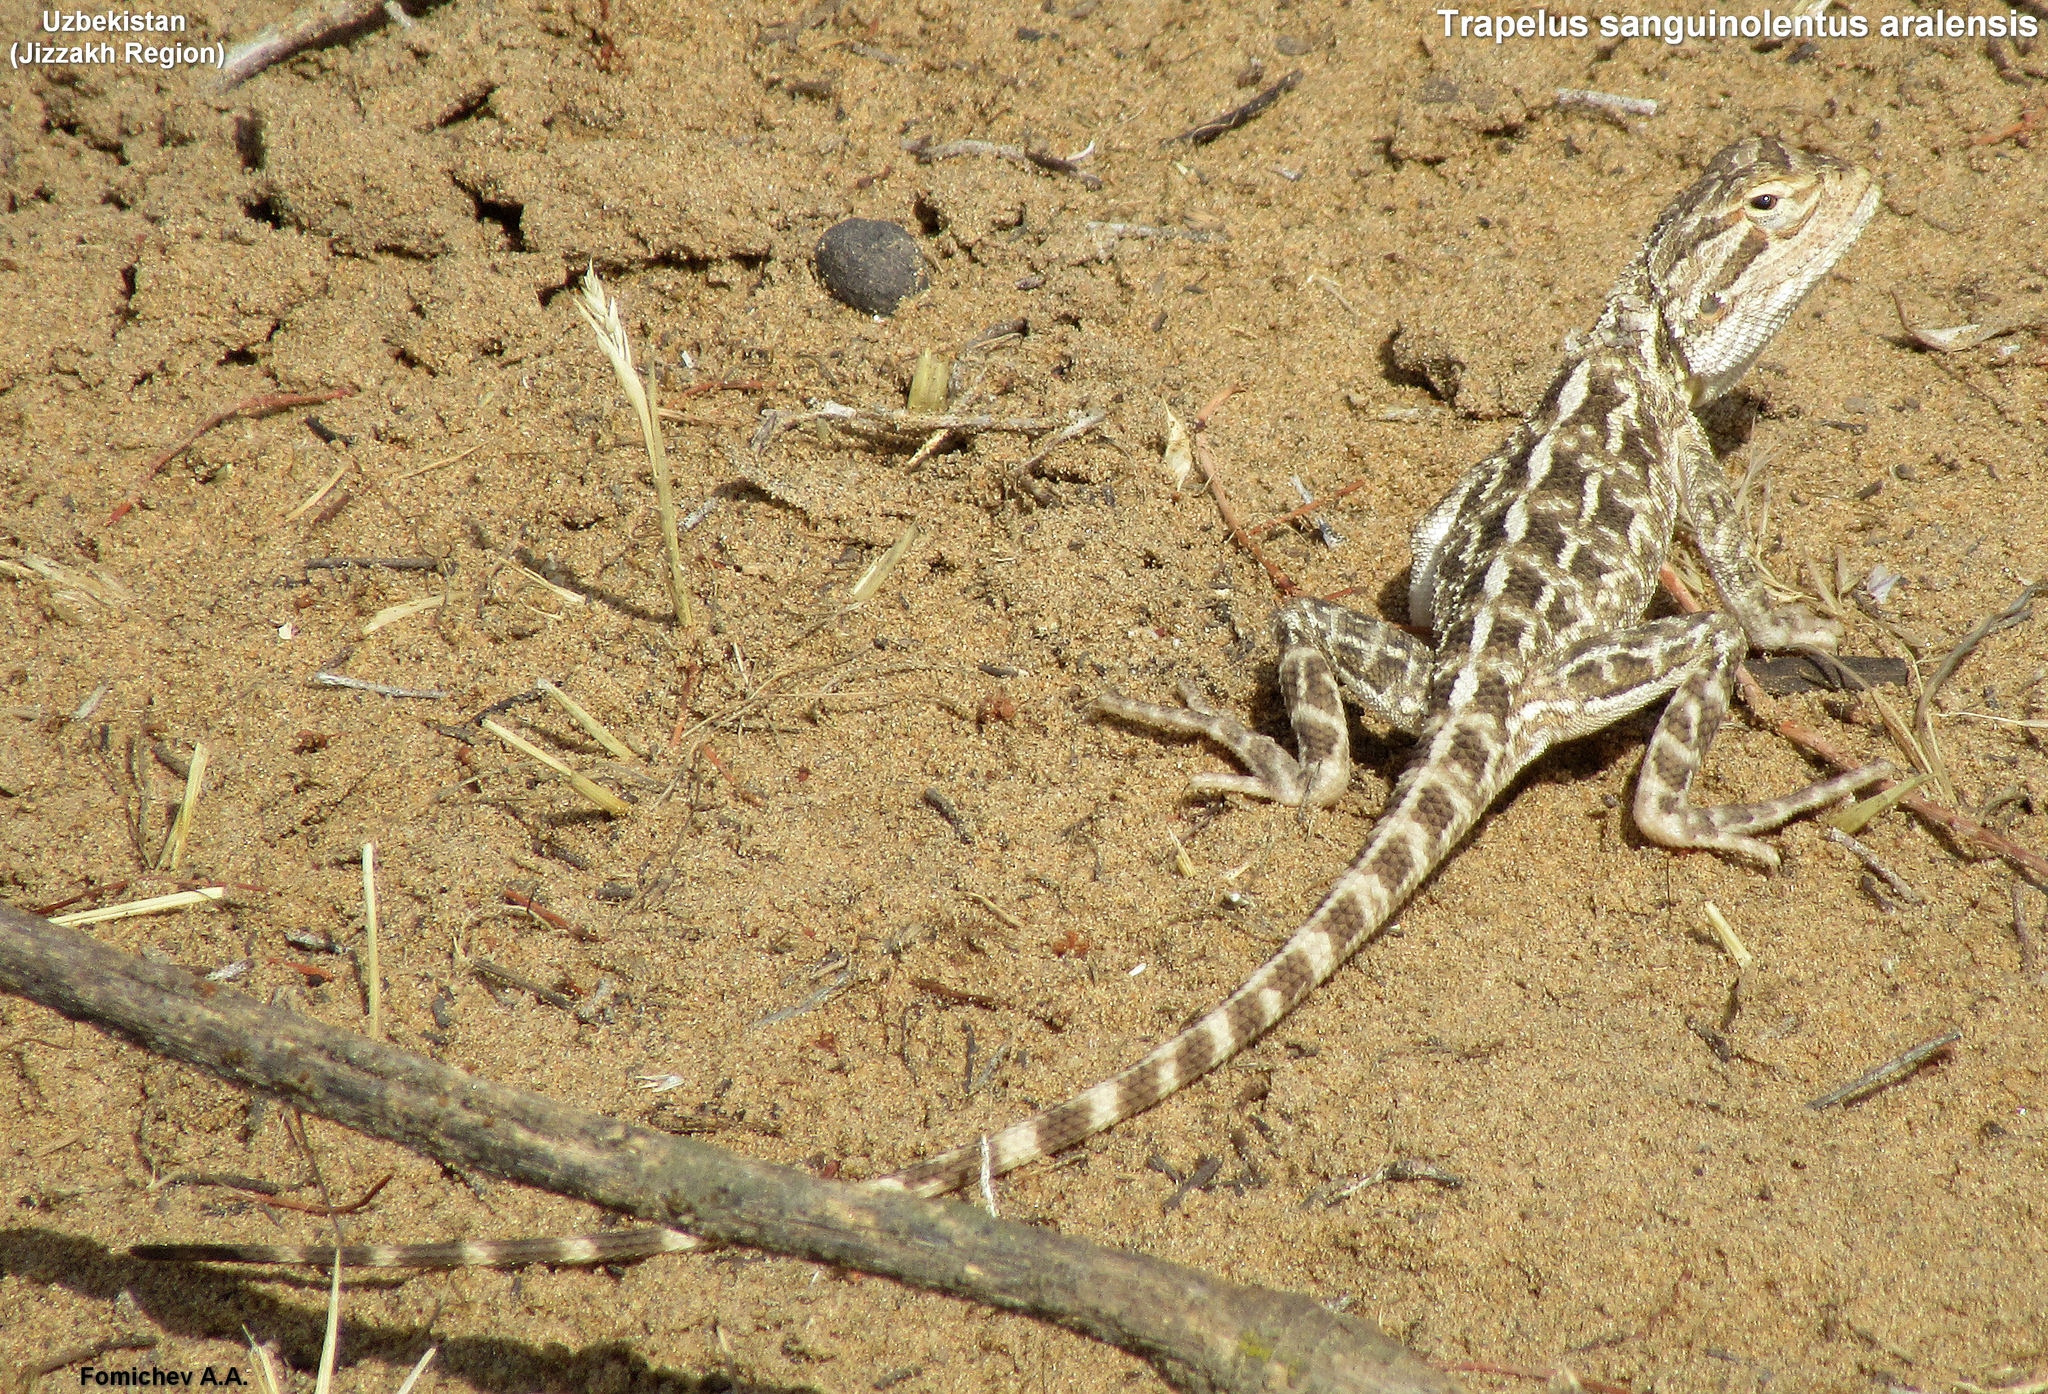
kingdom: Animalia
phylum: Chordata
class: Squamata
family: Agamidae
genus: Trapelus
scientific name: Trapelus sanguinolentus
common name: Steppe agama
